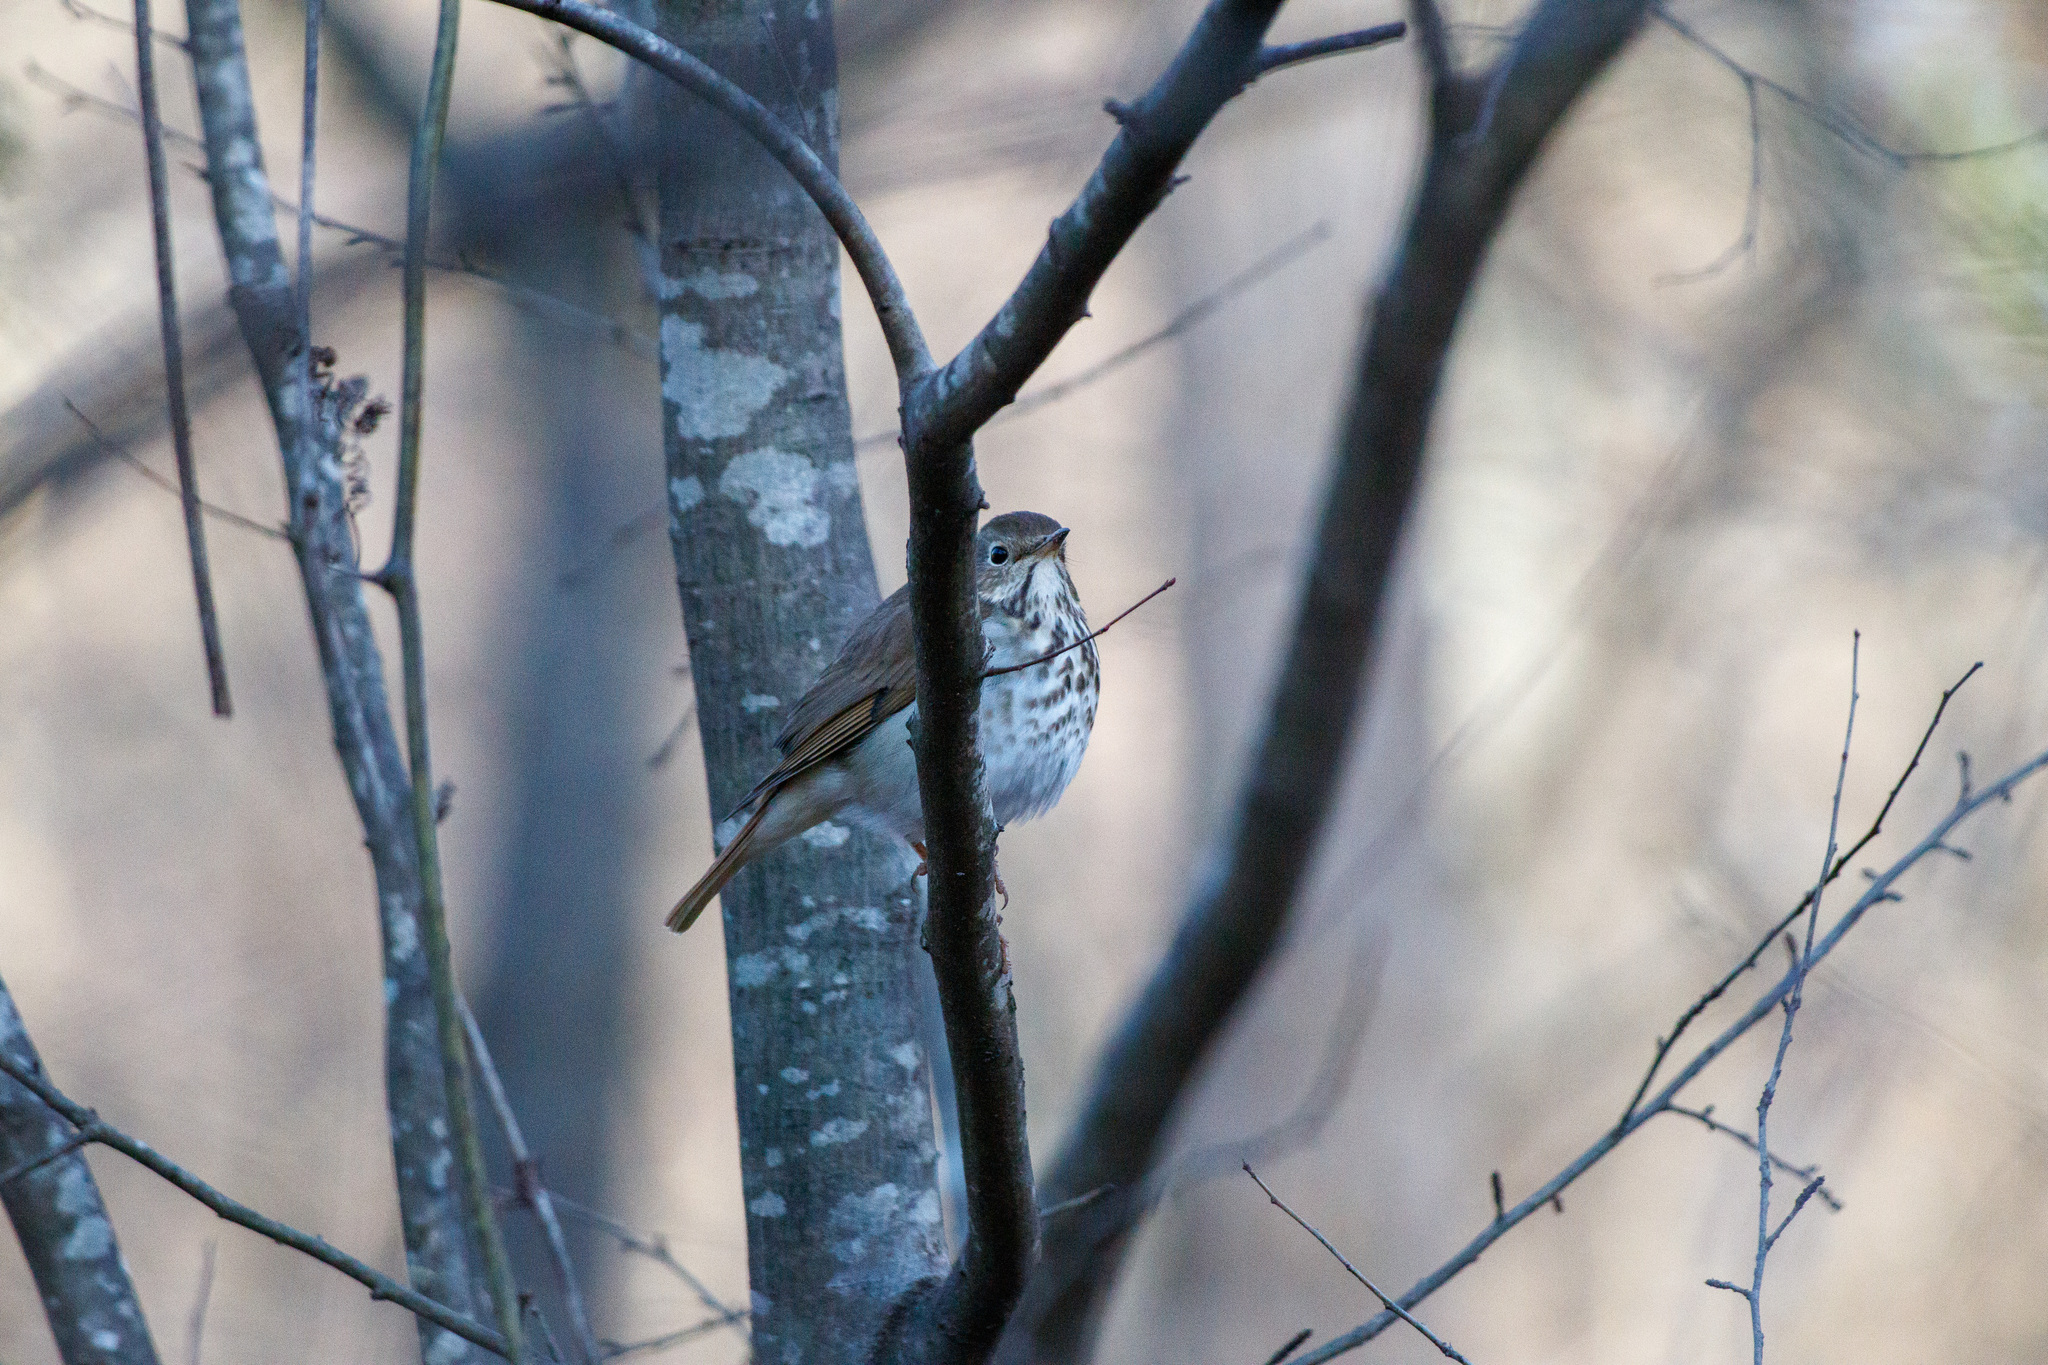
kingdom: Animalia
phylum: Chordata
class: Aves
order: Passeriformes
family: Turdidae
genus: Catharus
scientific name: Catharus guttatus
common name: Hermit thrush
